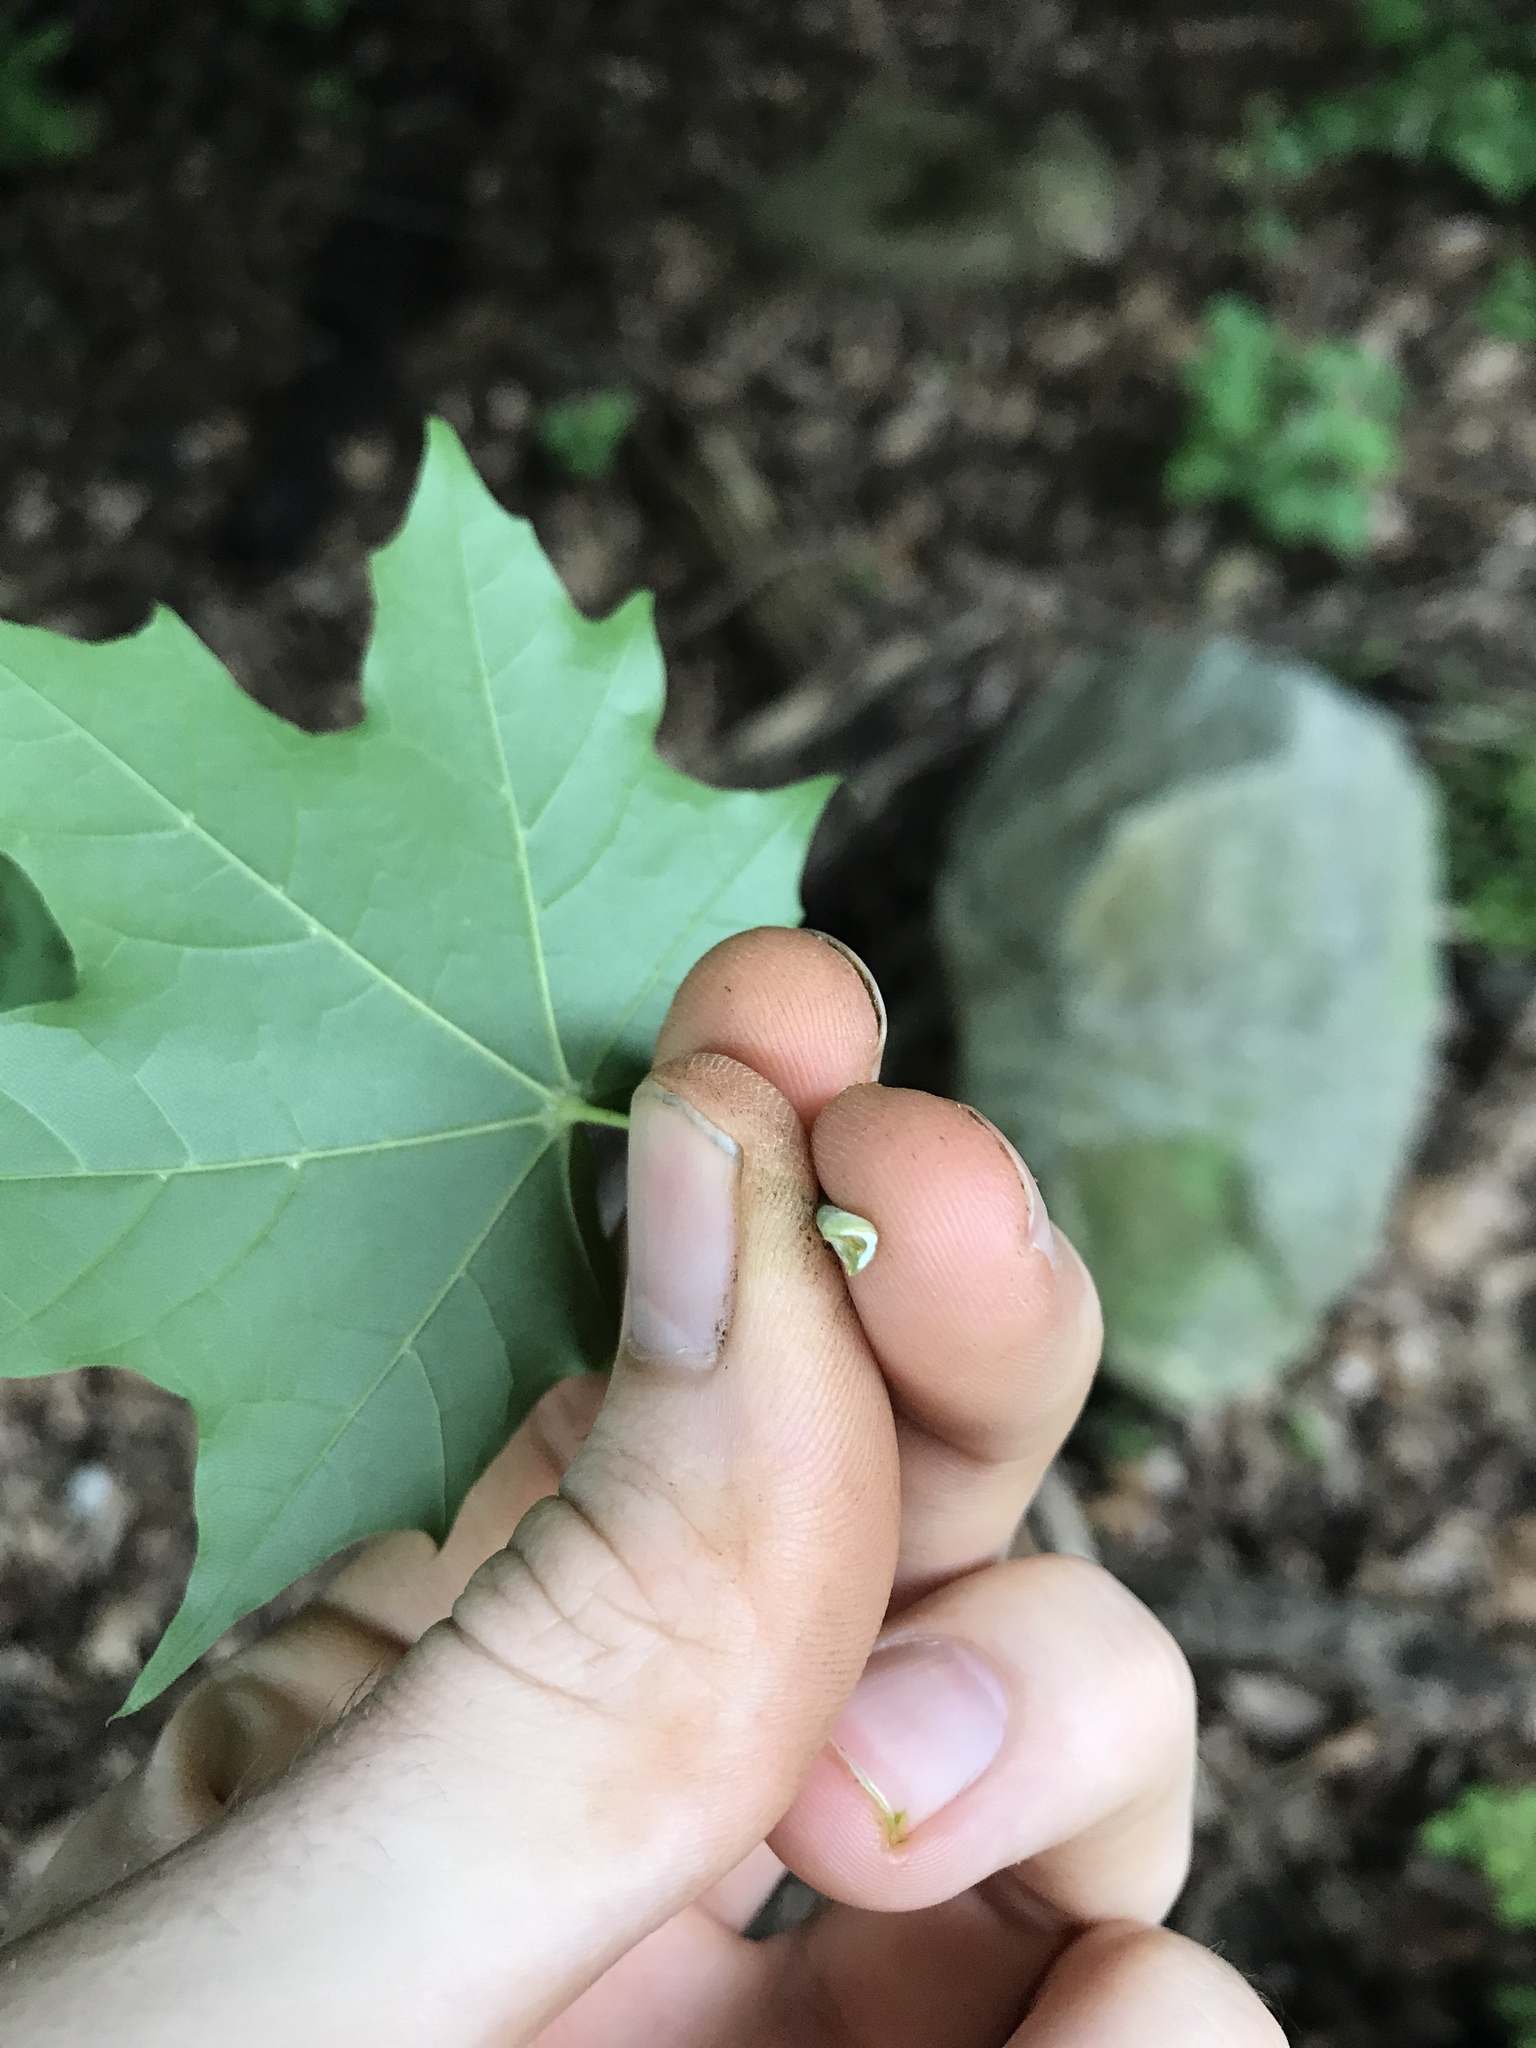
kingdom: Plantae
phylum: Tracheophyta
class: Magnoliopsida
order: Sapindales
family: Sapindaceae
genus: Acer
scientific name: Acer platanoides
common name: Norway maple
